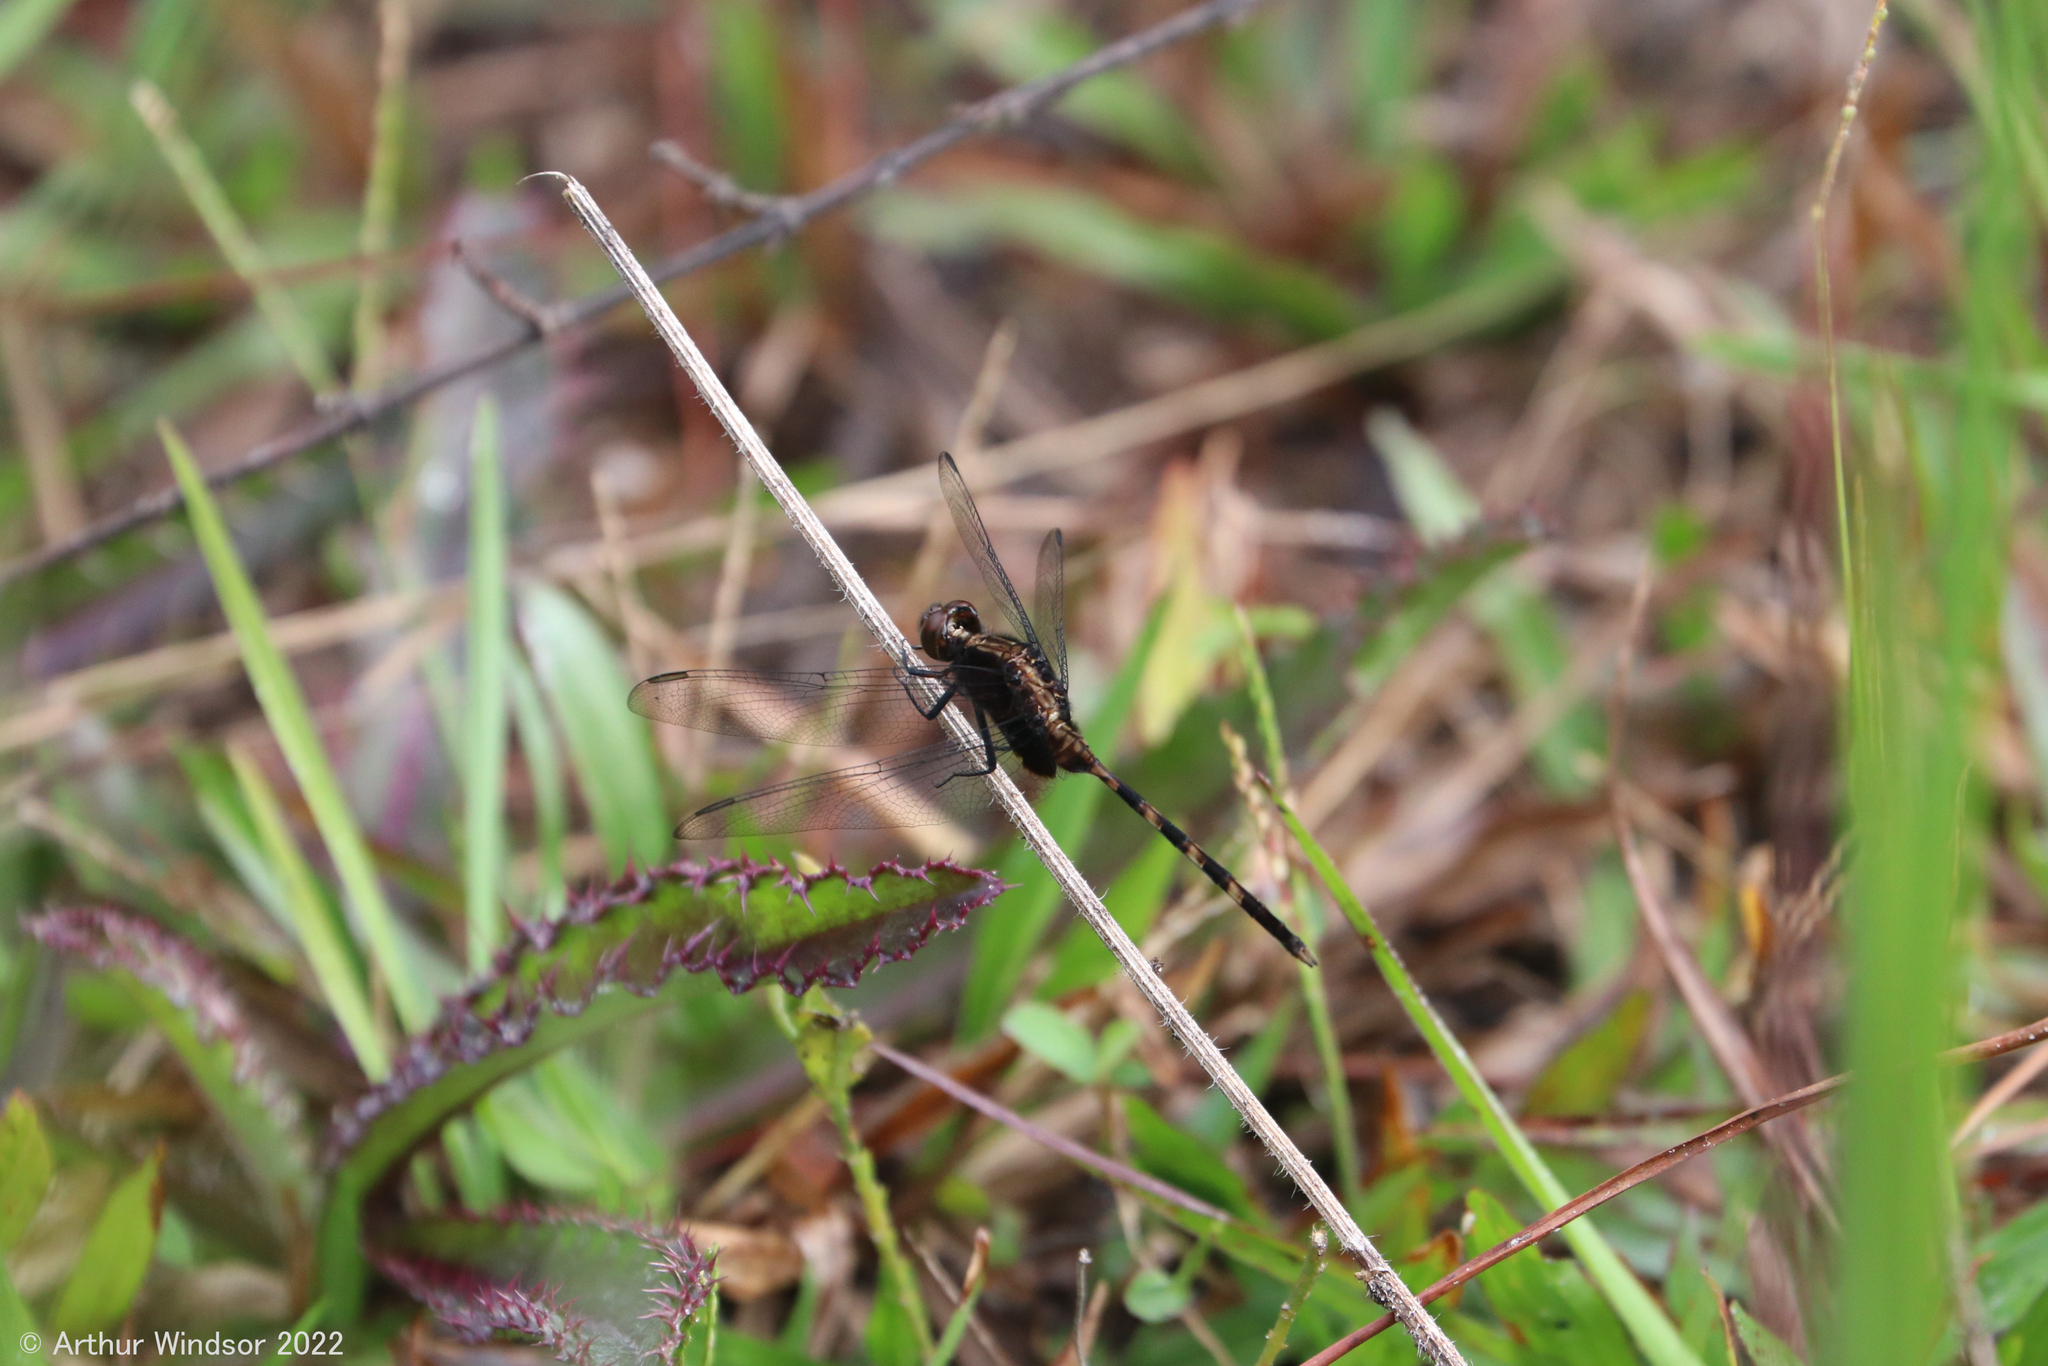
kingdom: Animalia
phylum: Arthropoda
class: Insecta
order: Odonata
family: Libellulidae
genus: Erythemis
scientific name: Erythemis plebeja
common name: Pin-tailed pondhawk
